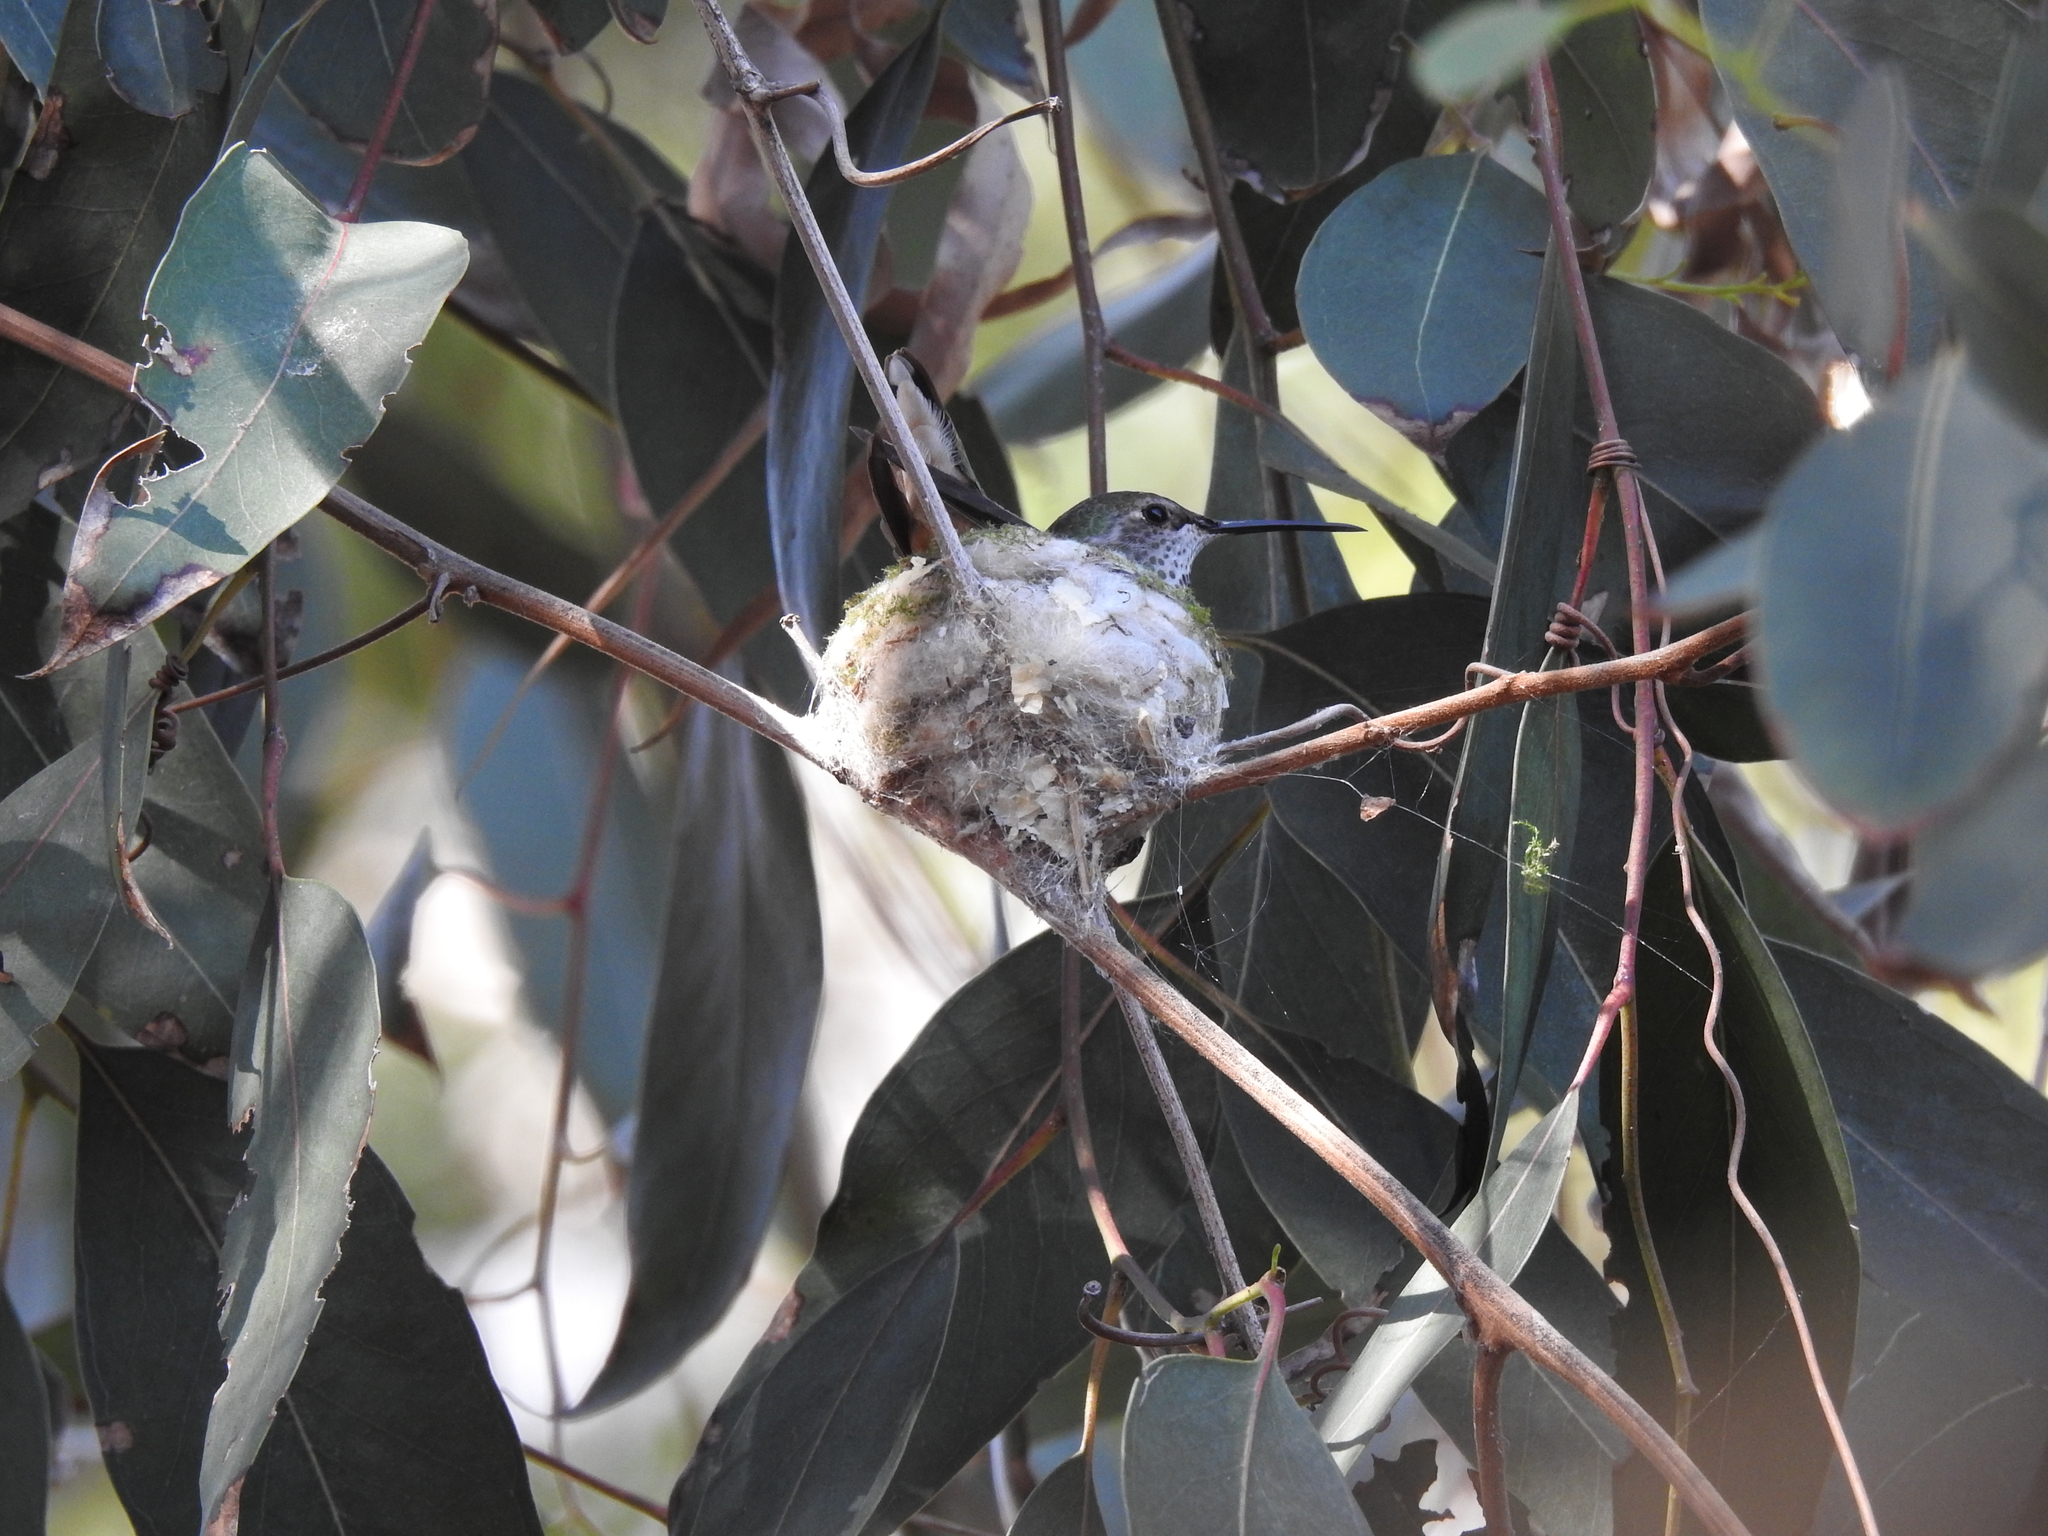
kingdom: Animalia
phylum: Chordata
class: Aves
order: Apodiformes
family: Trochilidae
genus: Calypte
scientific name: Calypte anna
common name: Anna's hummingbird
